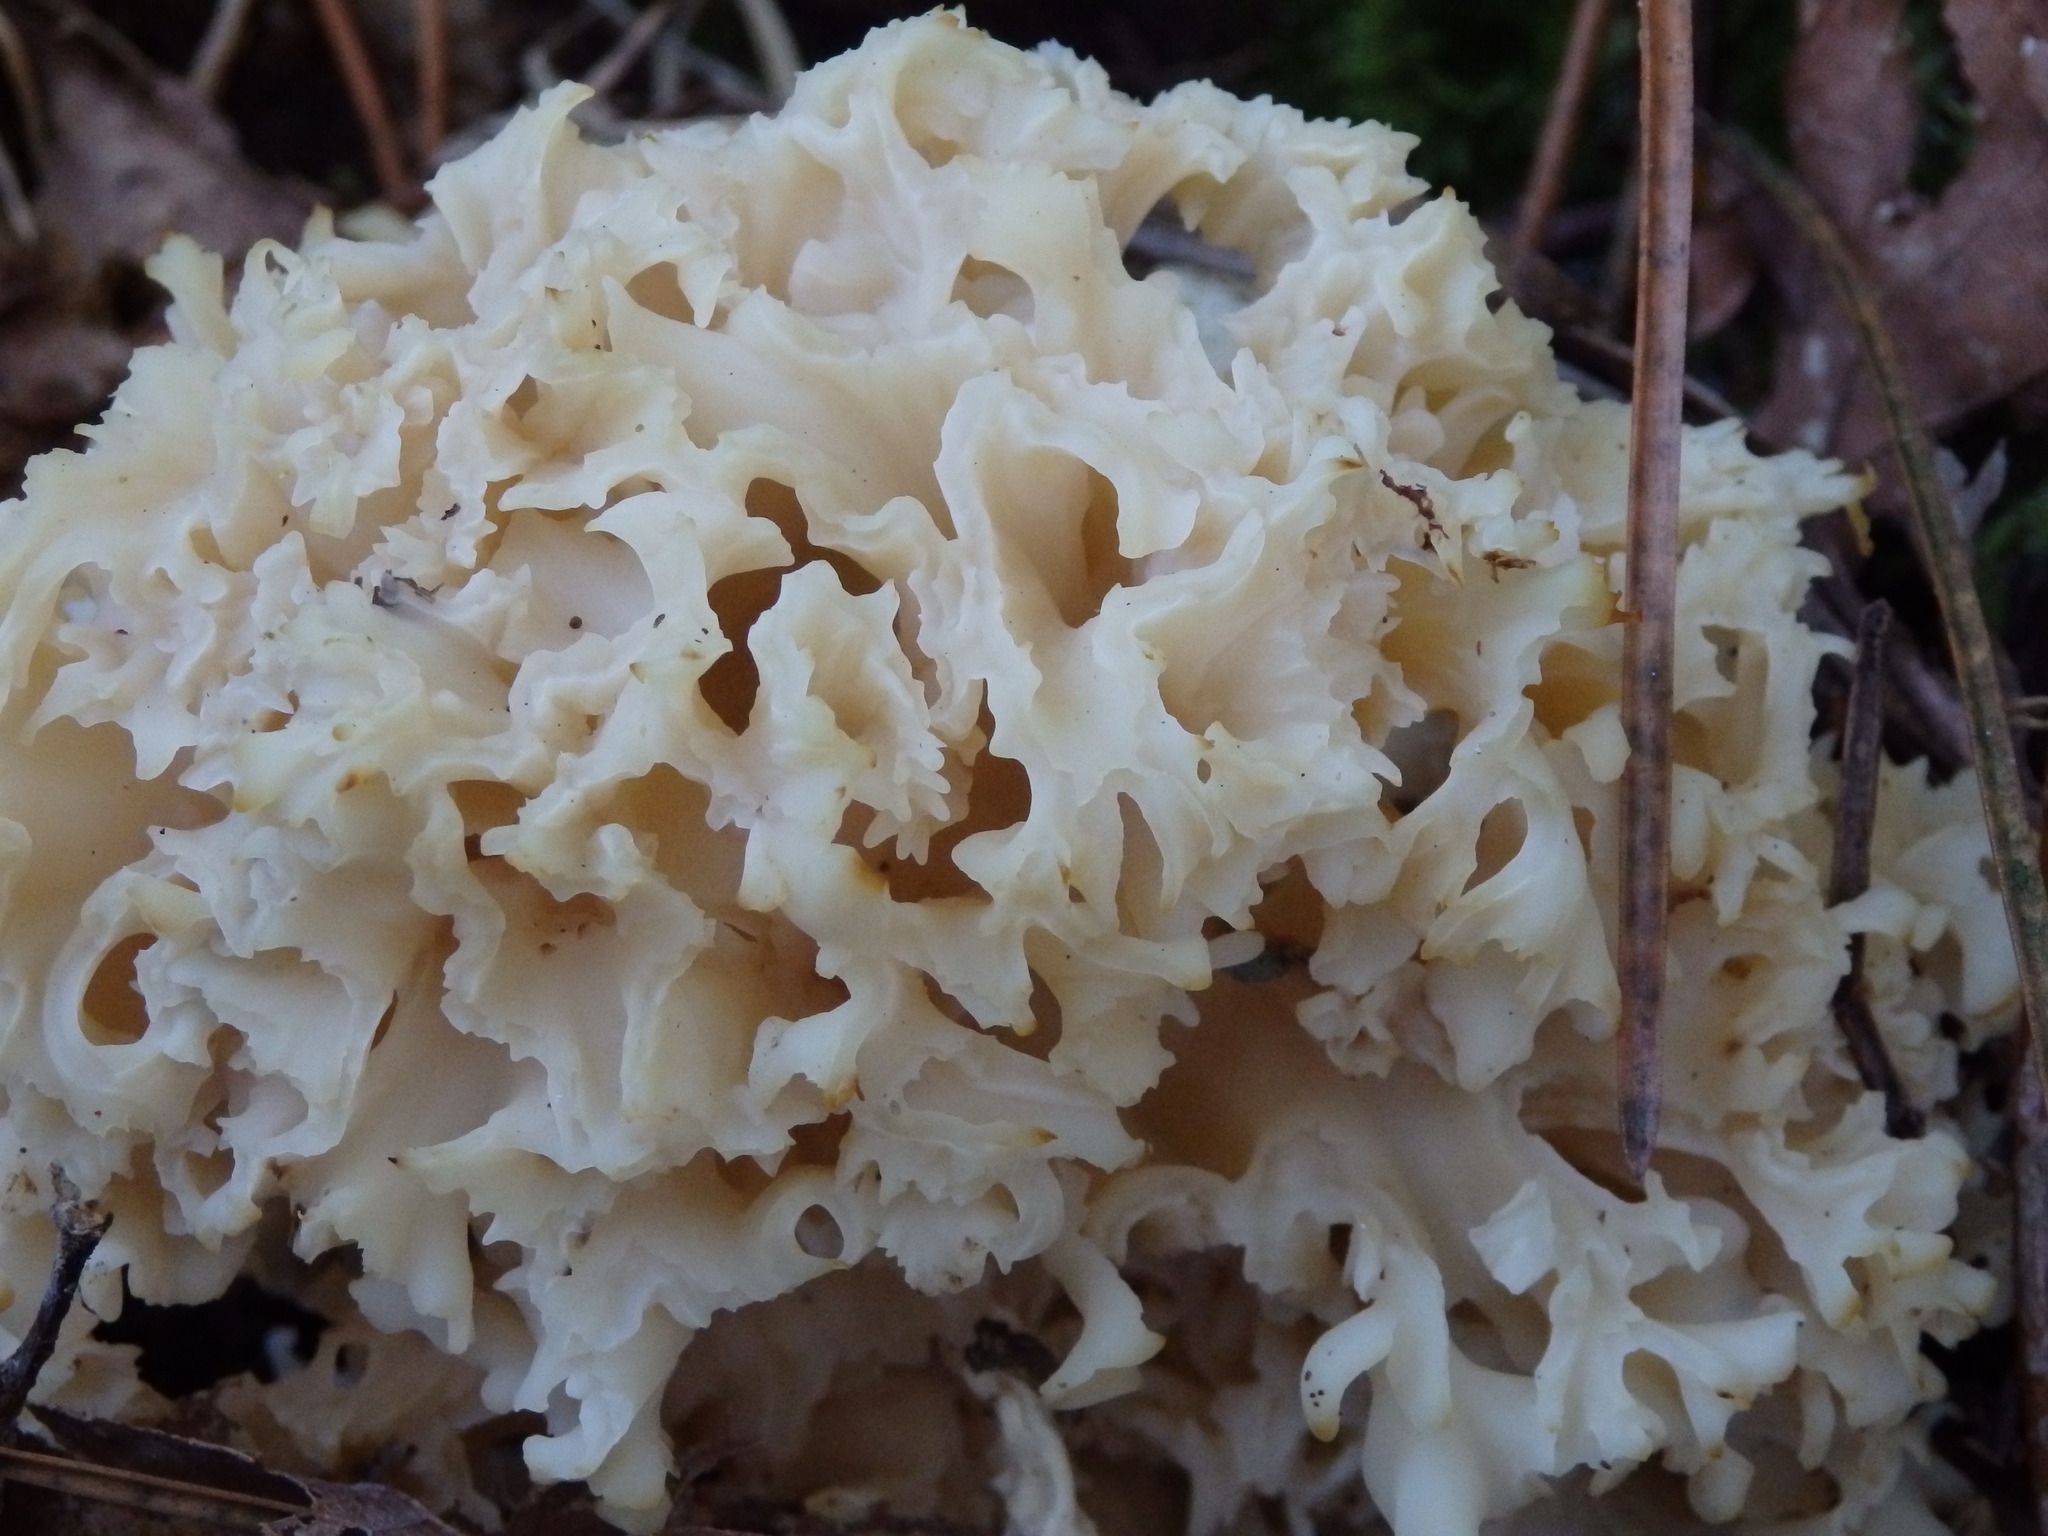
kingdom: Fungi
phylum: Basidiomycota
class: Agaricomycetes
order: Polyporales
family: Sparassidaceae
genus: Sparassis
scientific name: Sparassis crispa
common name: Brain fungus
